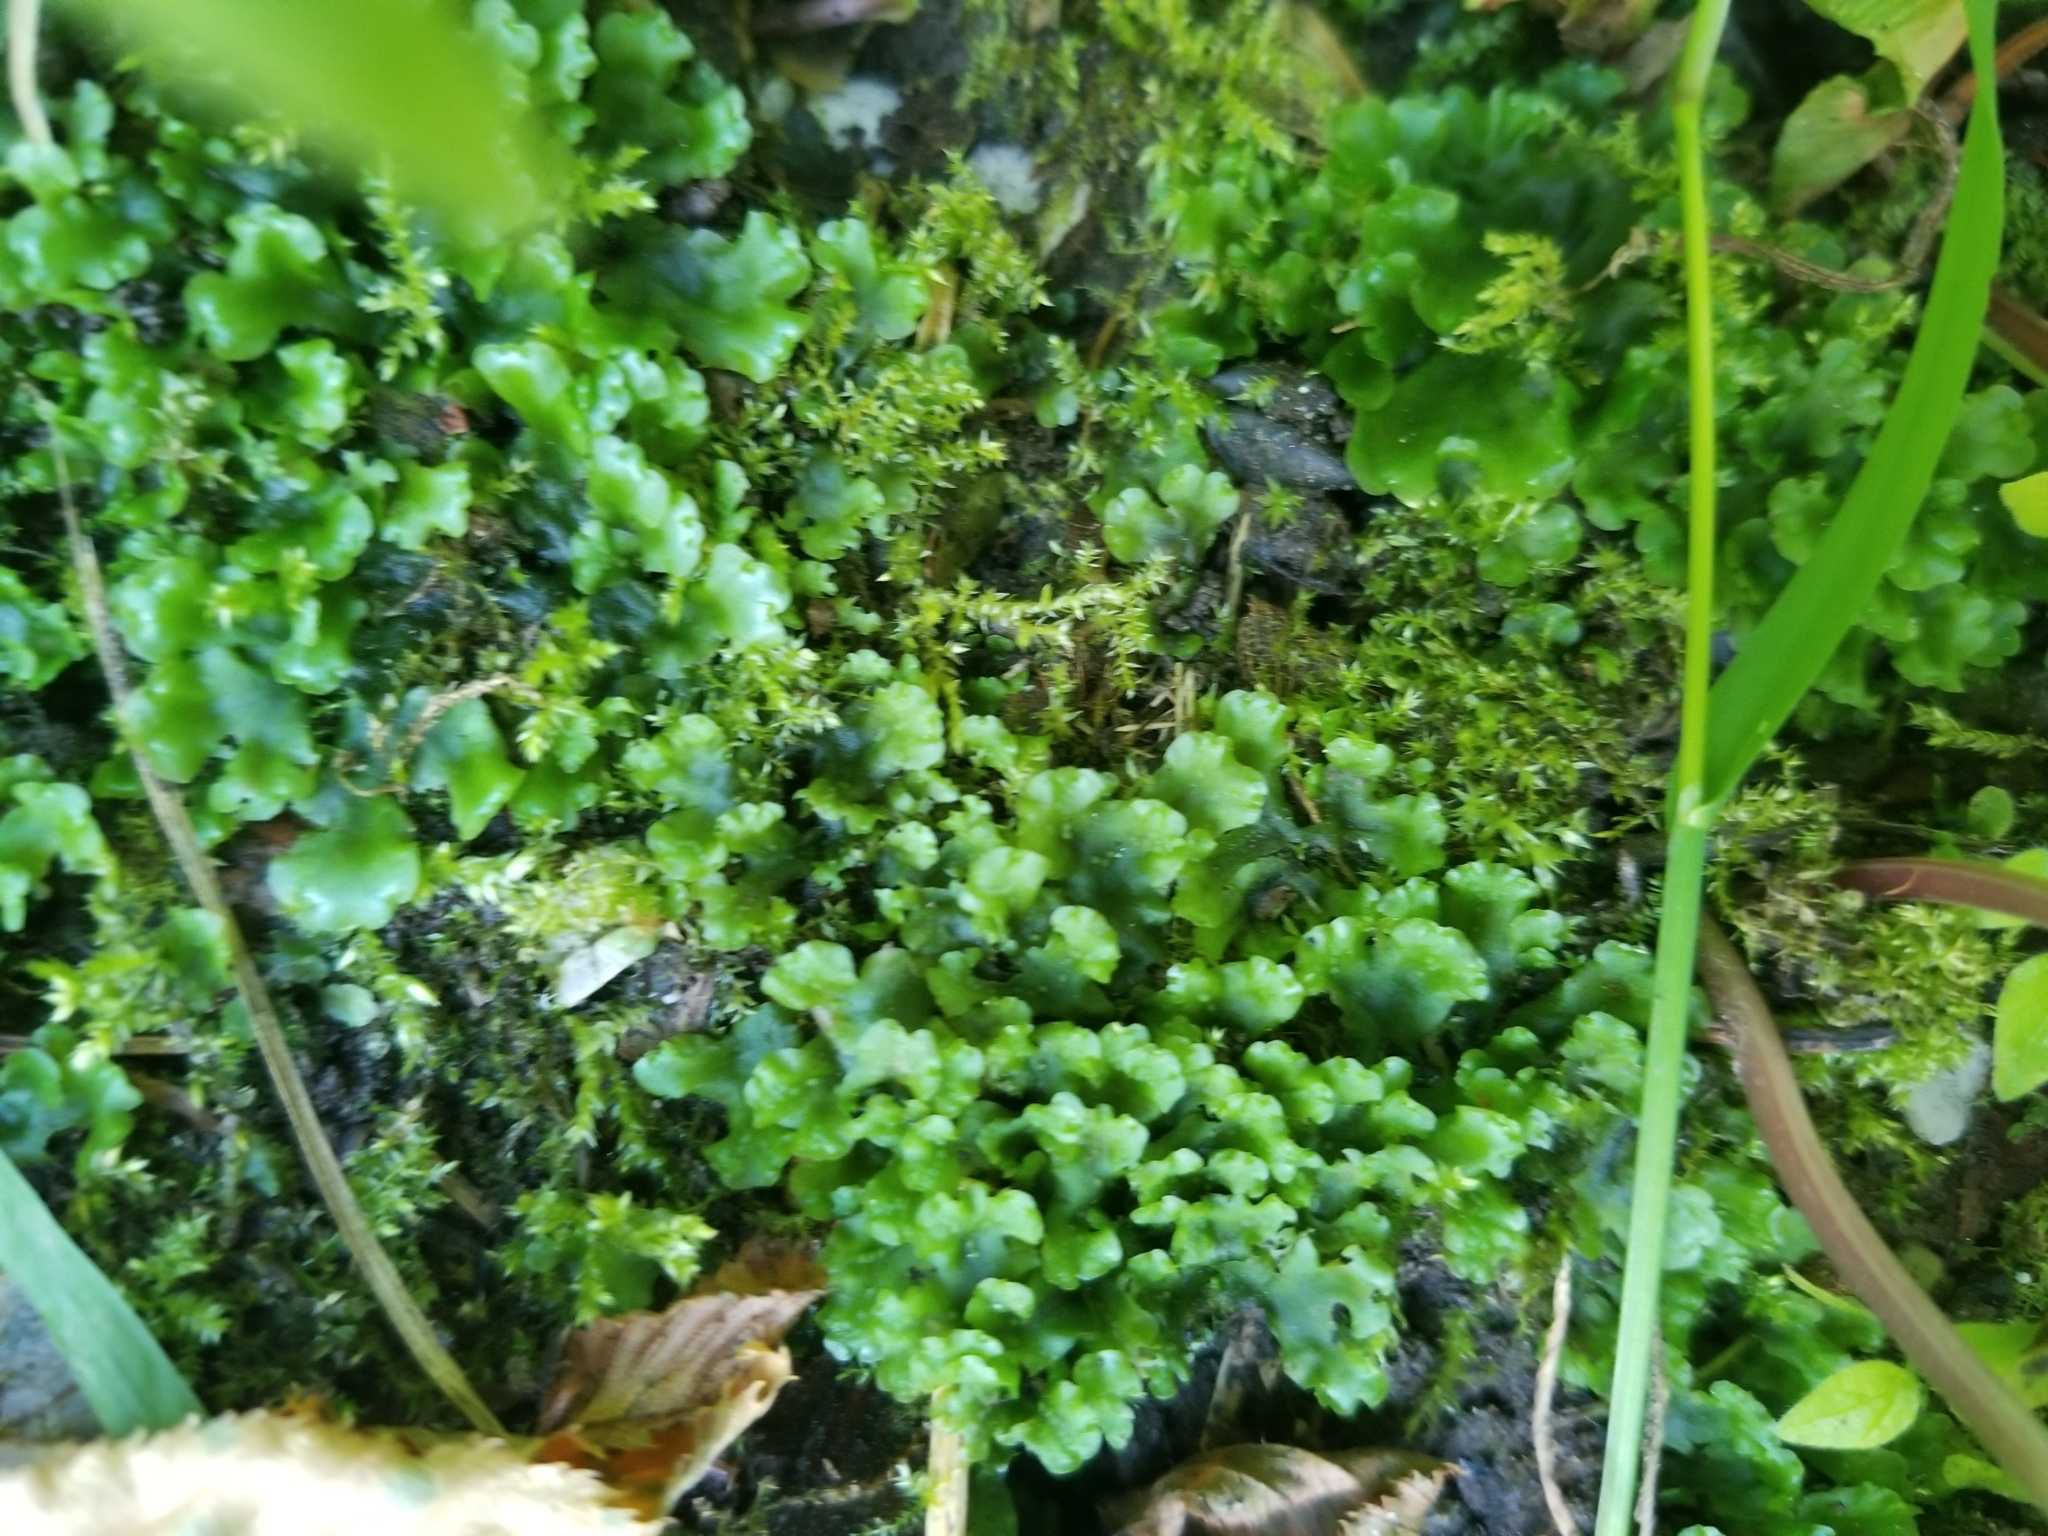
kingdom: Plantae
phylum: Marchantiophyta
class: Jungermanniopsida
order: Pelliales
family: Pelliaceae
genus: Apopellia
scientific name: Apopellia endiviifolia
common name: Endive pellia
